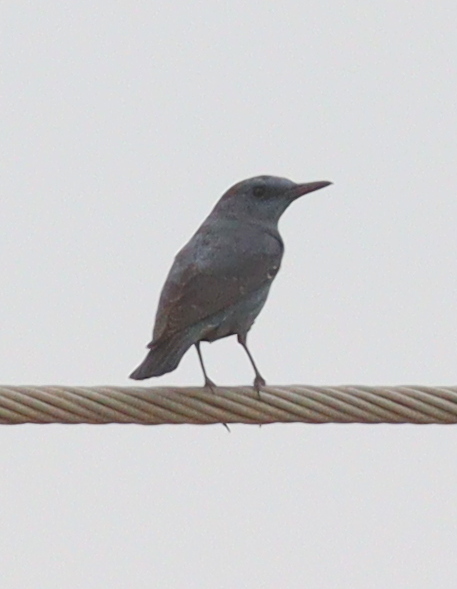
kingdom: Animalia
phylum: Chordata
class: Aves
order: Passeriformes
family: Muscicapidae
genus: Monticola
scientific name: Monticola solitarius
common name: Blue rock thrush
